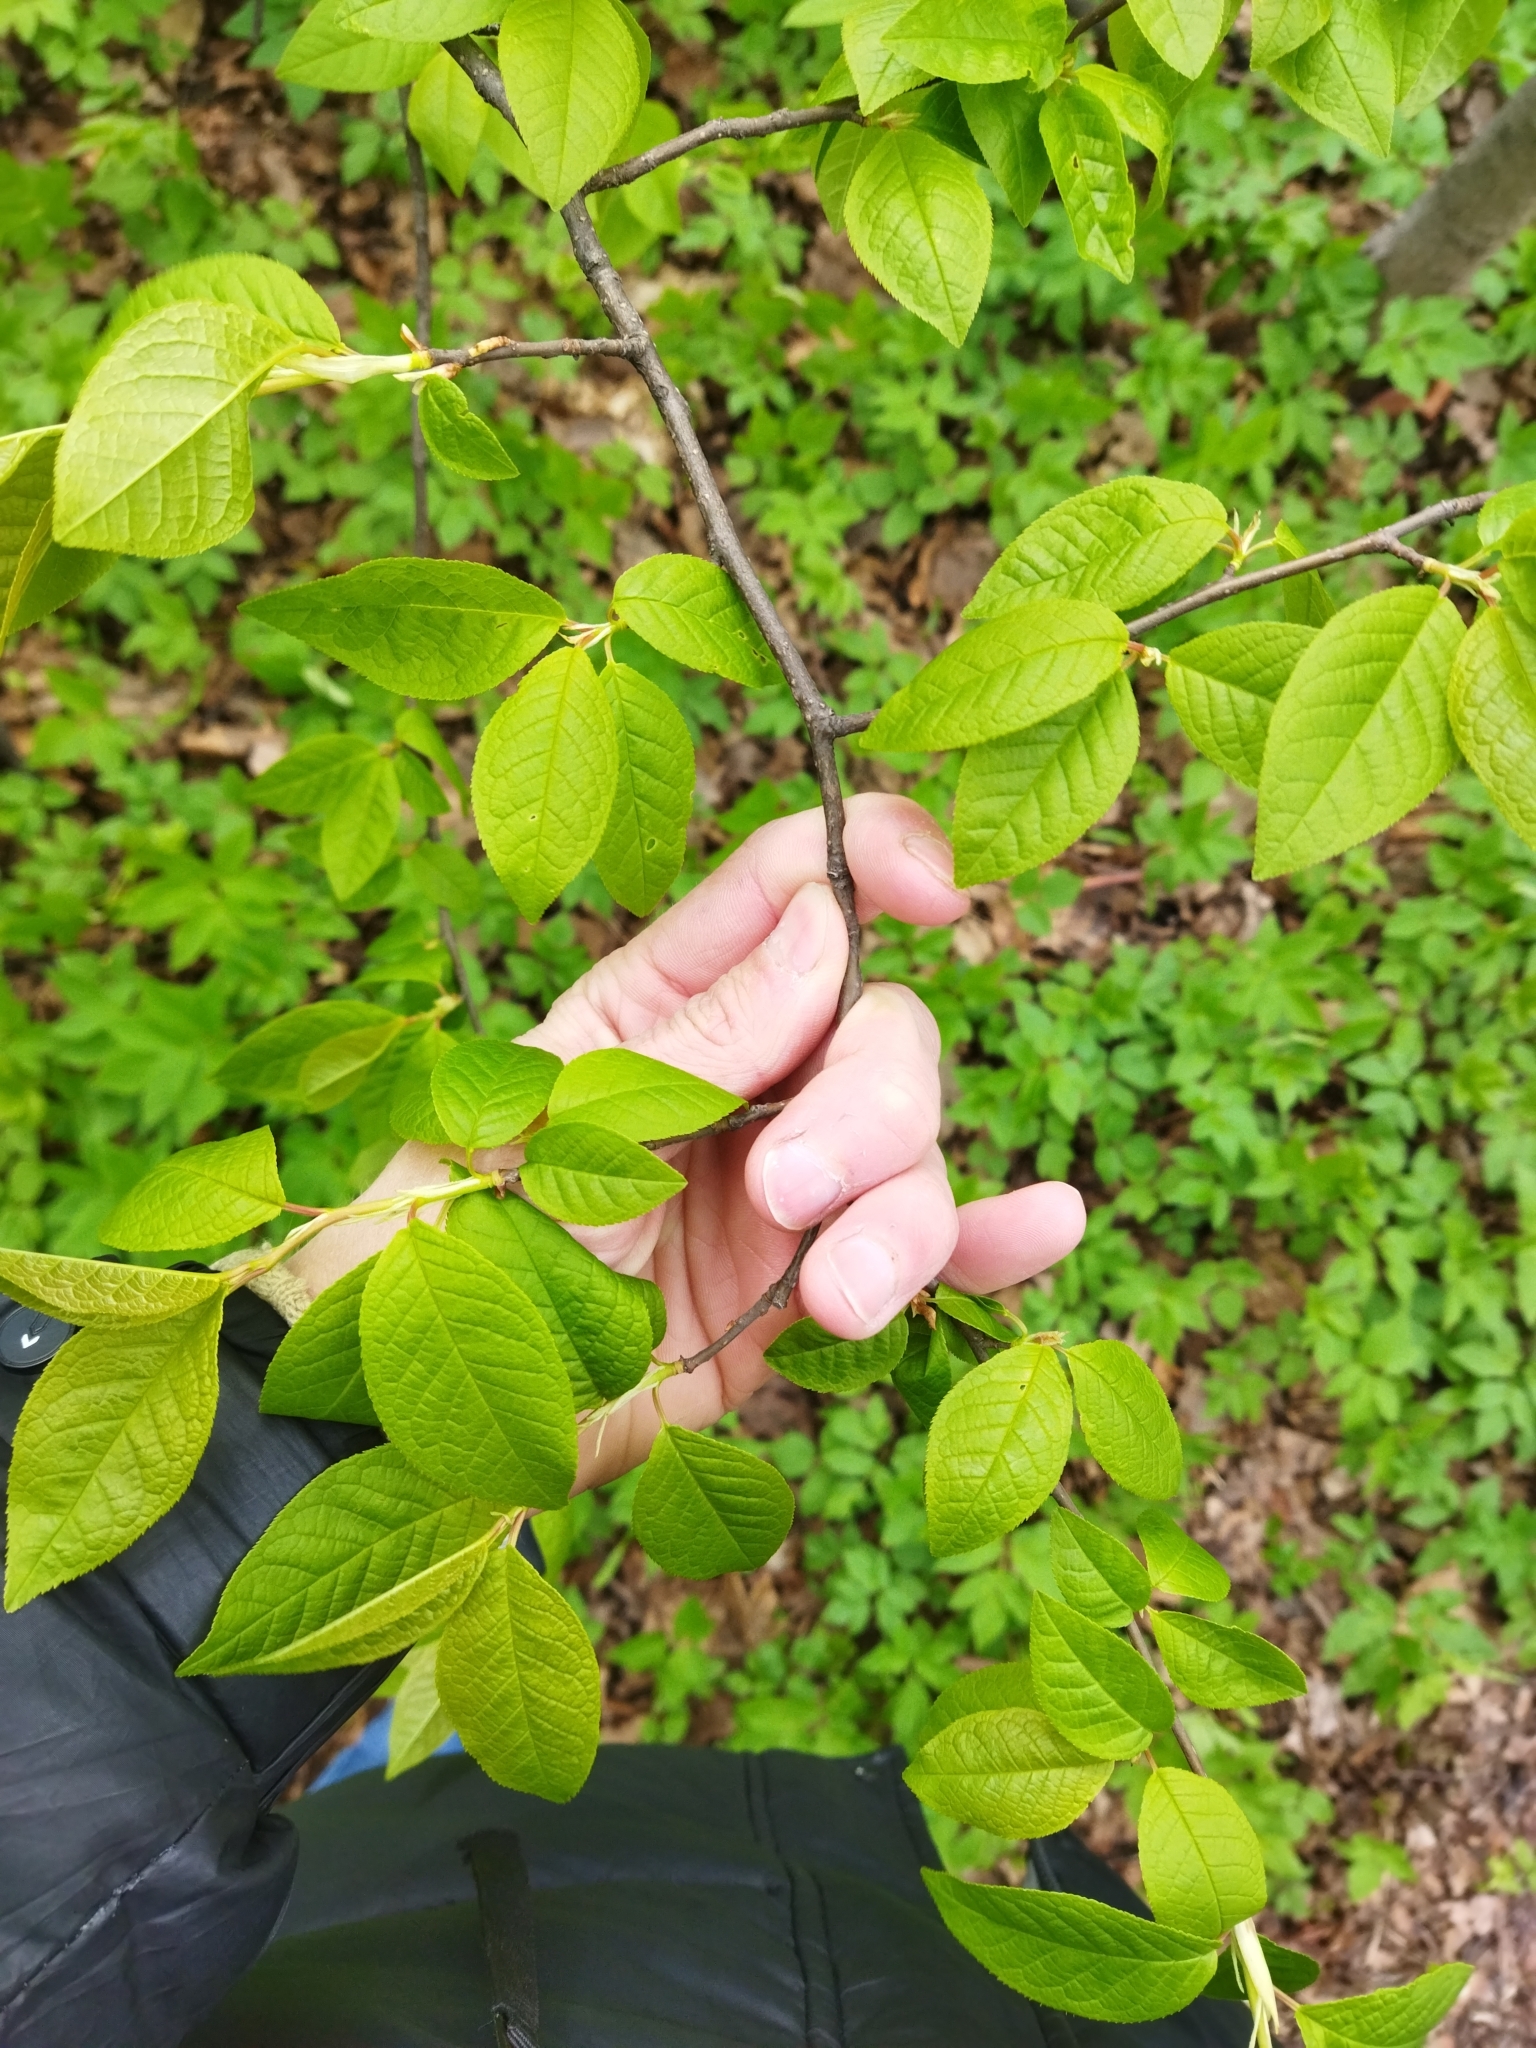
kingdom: Plantae
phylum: Tracheophyta
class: Magnoliopsida
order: Rosales
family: Rosaceae
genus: Prunus
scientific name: Prunus padus
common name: Bird cherry
